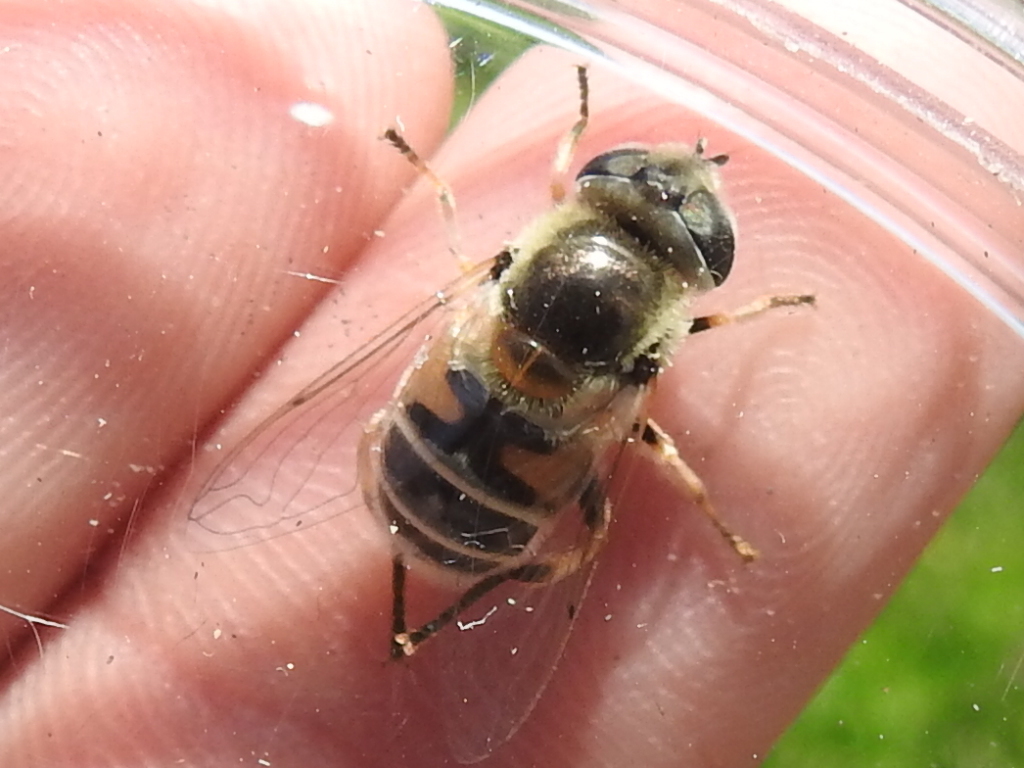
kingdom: Animalia
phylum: Arthropoda
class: Insecta
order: Diptera
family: Syrphidae
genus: Eristalis
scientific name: Eristalis stipator
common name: Yellow-shouldered drone fly
